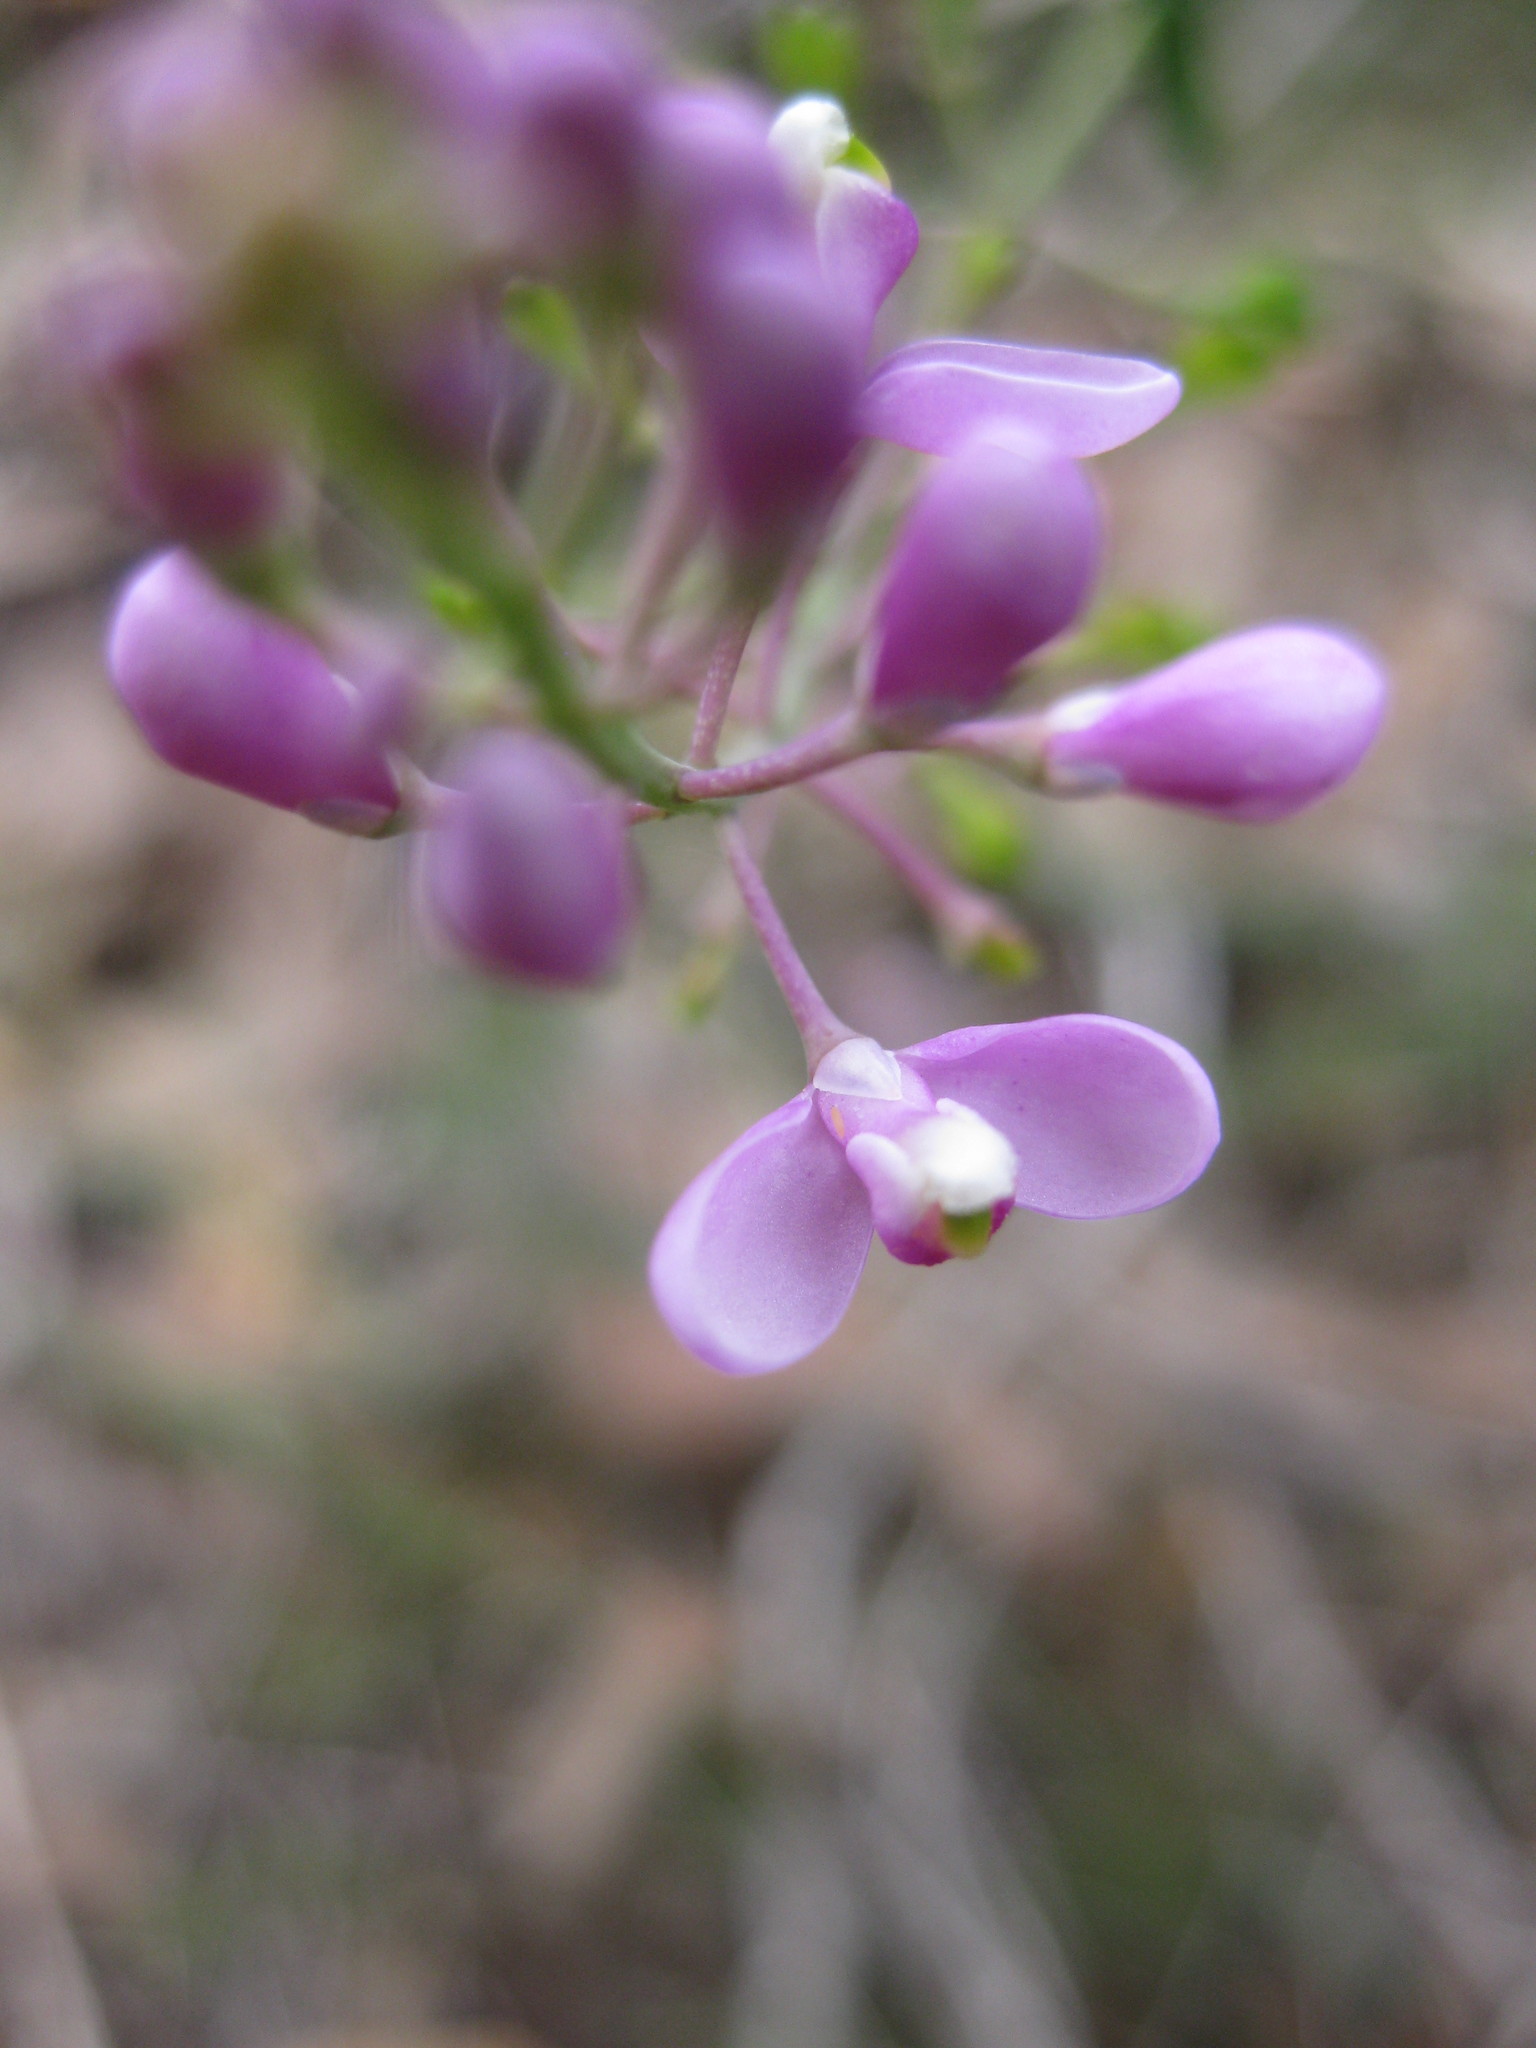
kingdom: Plantae
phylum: Tracheophyta
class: Magnoliopsida
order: Fabales
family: Polygalaceae
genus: Comesperma
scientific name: Comesperma ericinum
